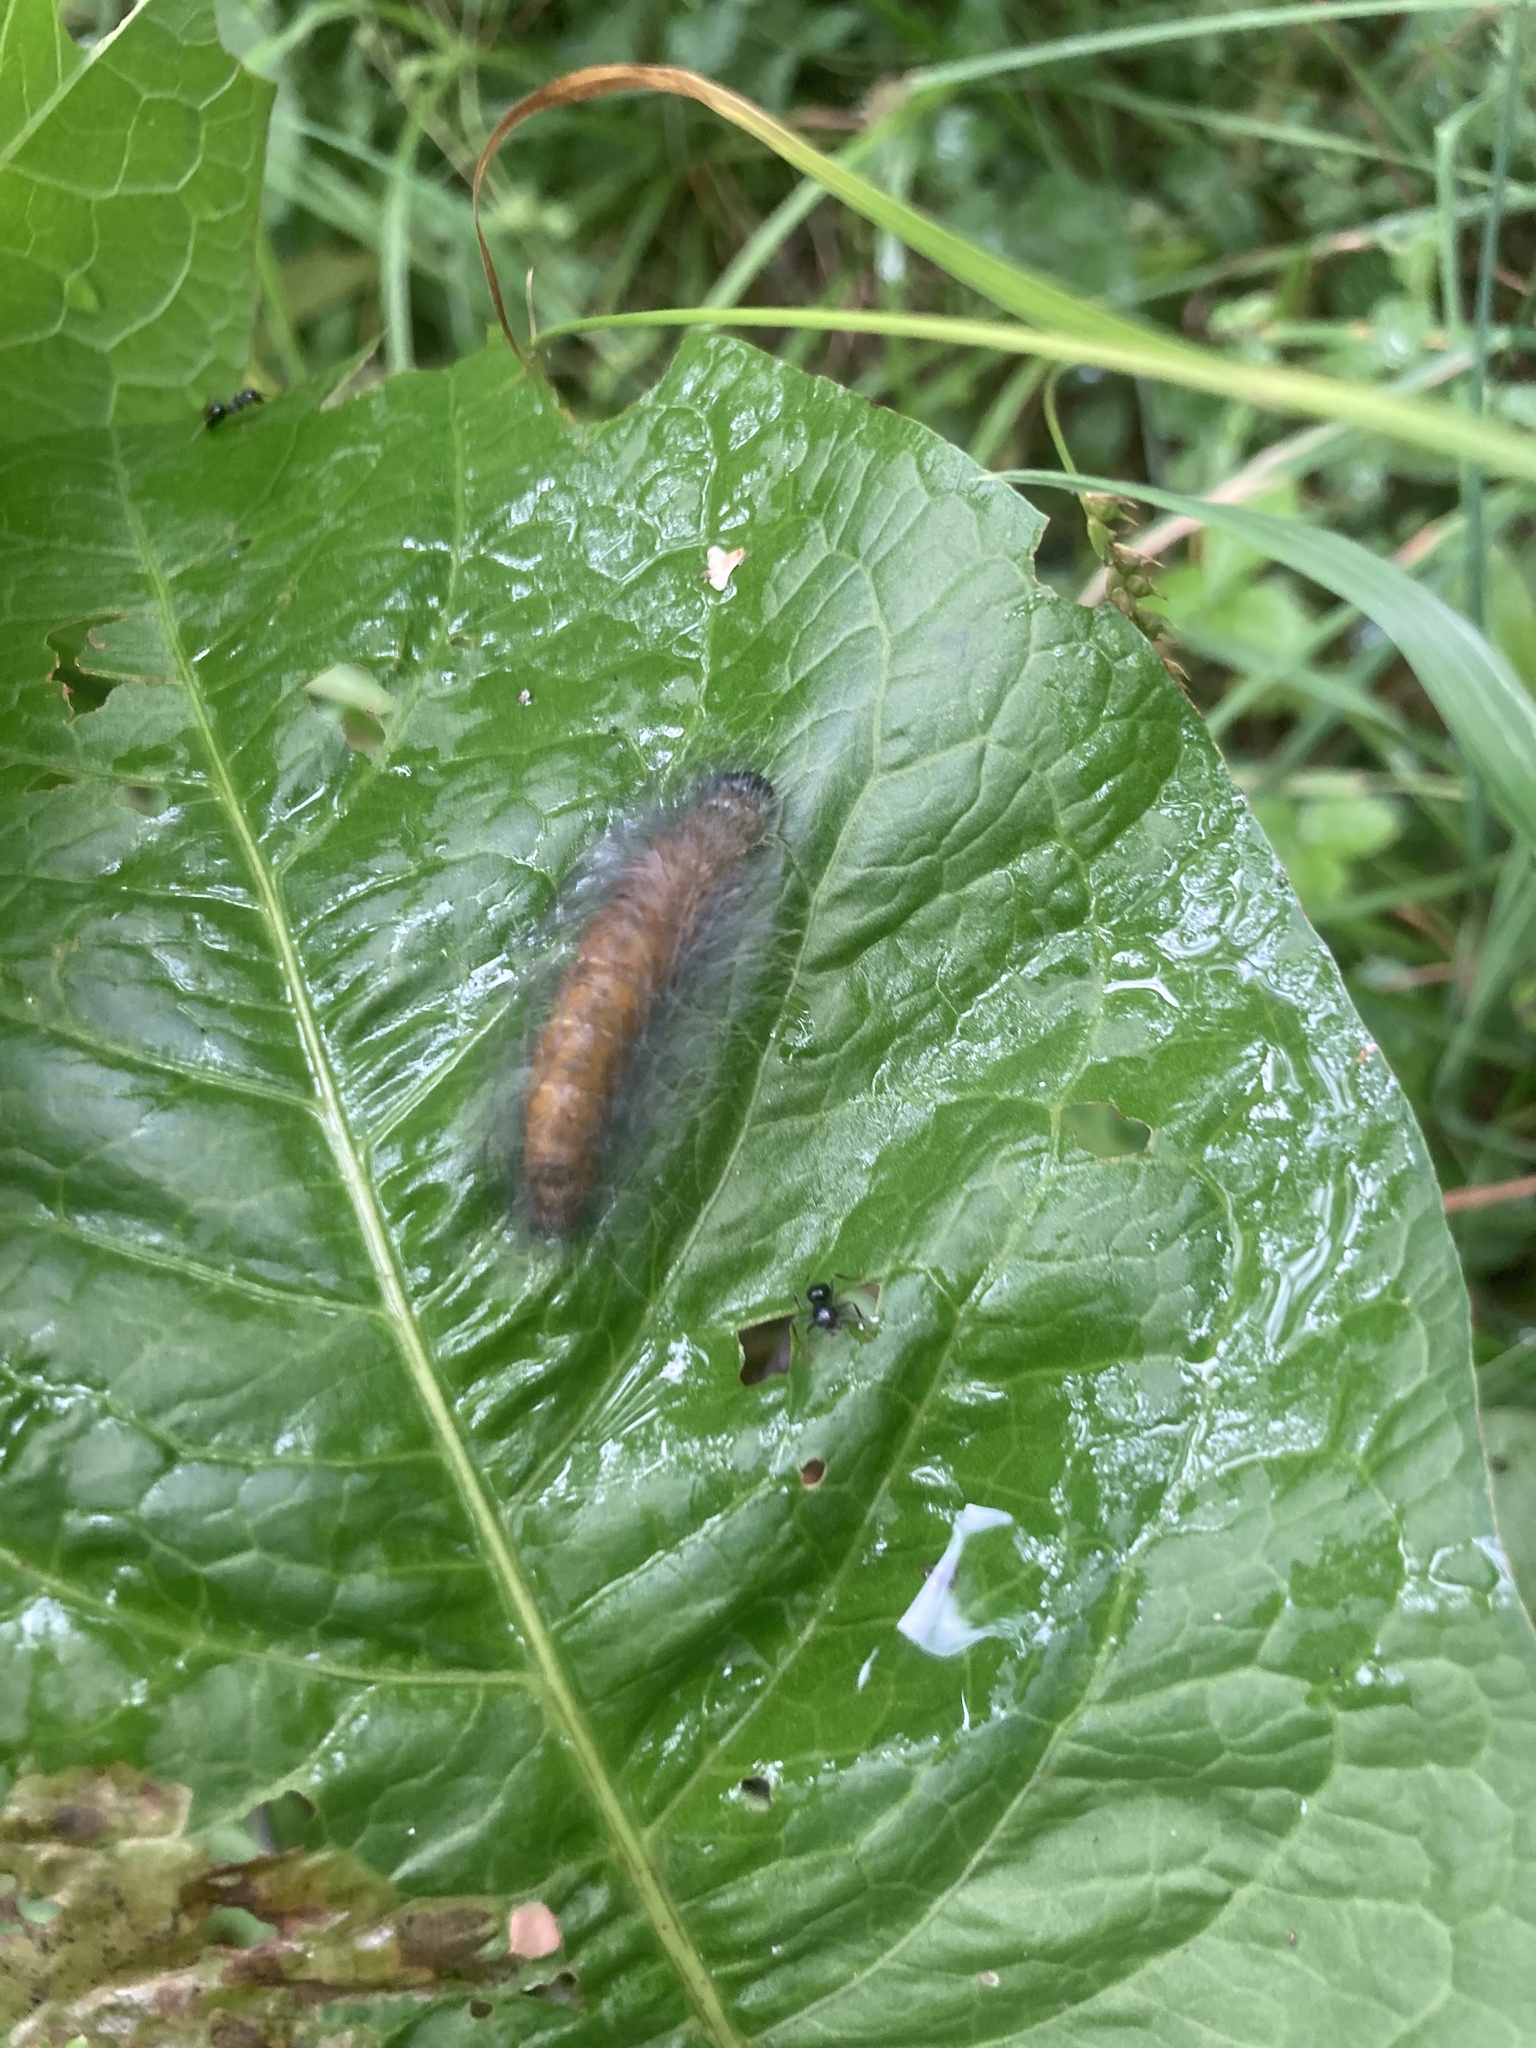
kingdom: Animalia
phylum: Arthropoda
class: Insecta
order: Lepidoptera
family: Noctuidae
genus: Acronicta
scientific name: Acronicta leporina
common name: Miller
